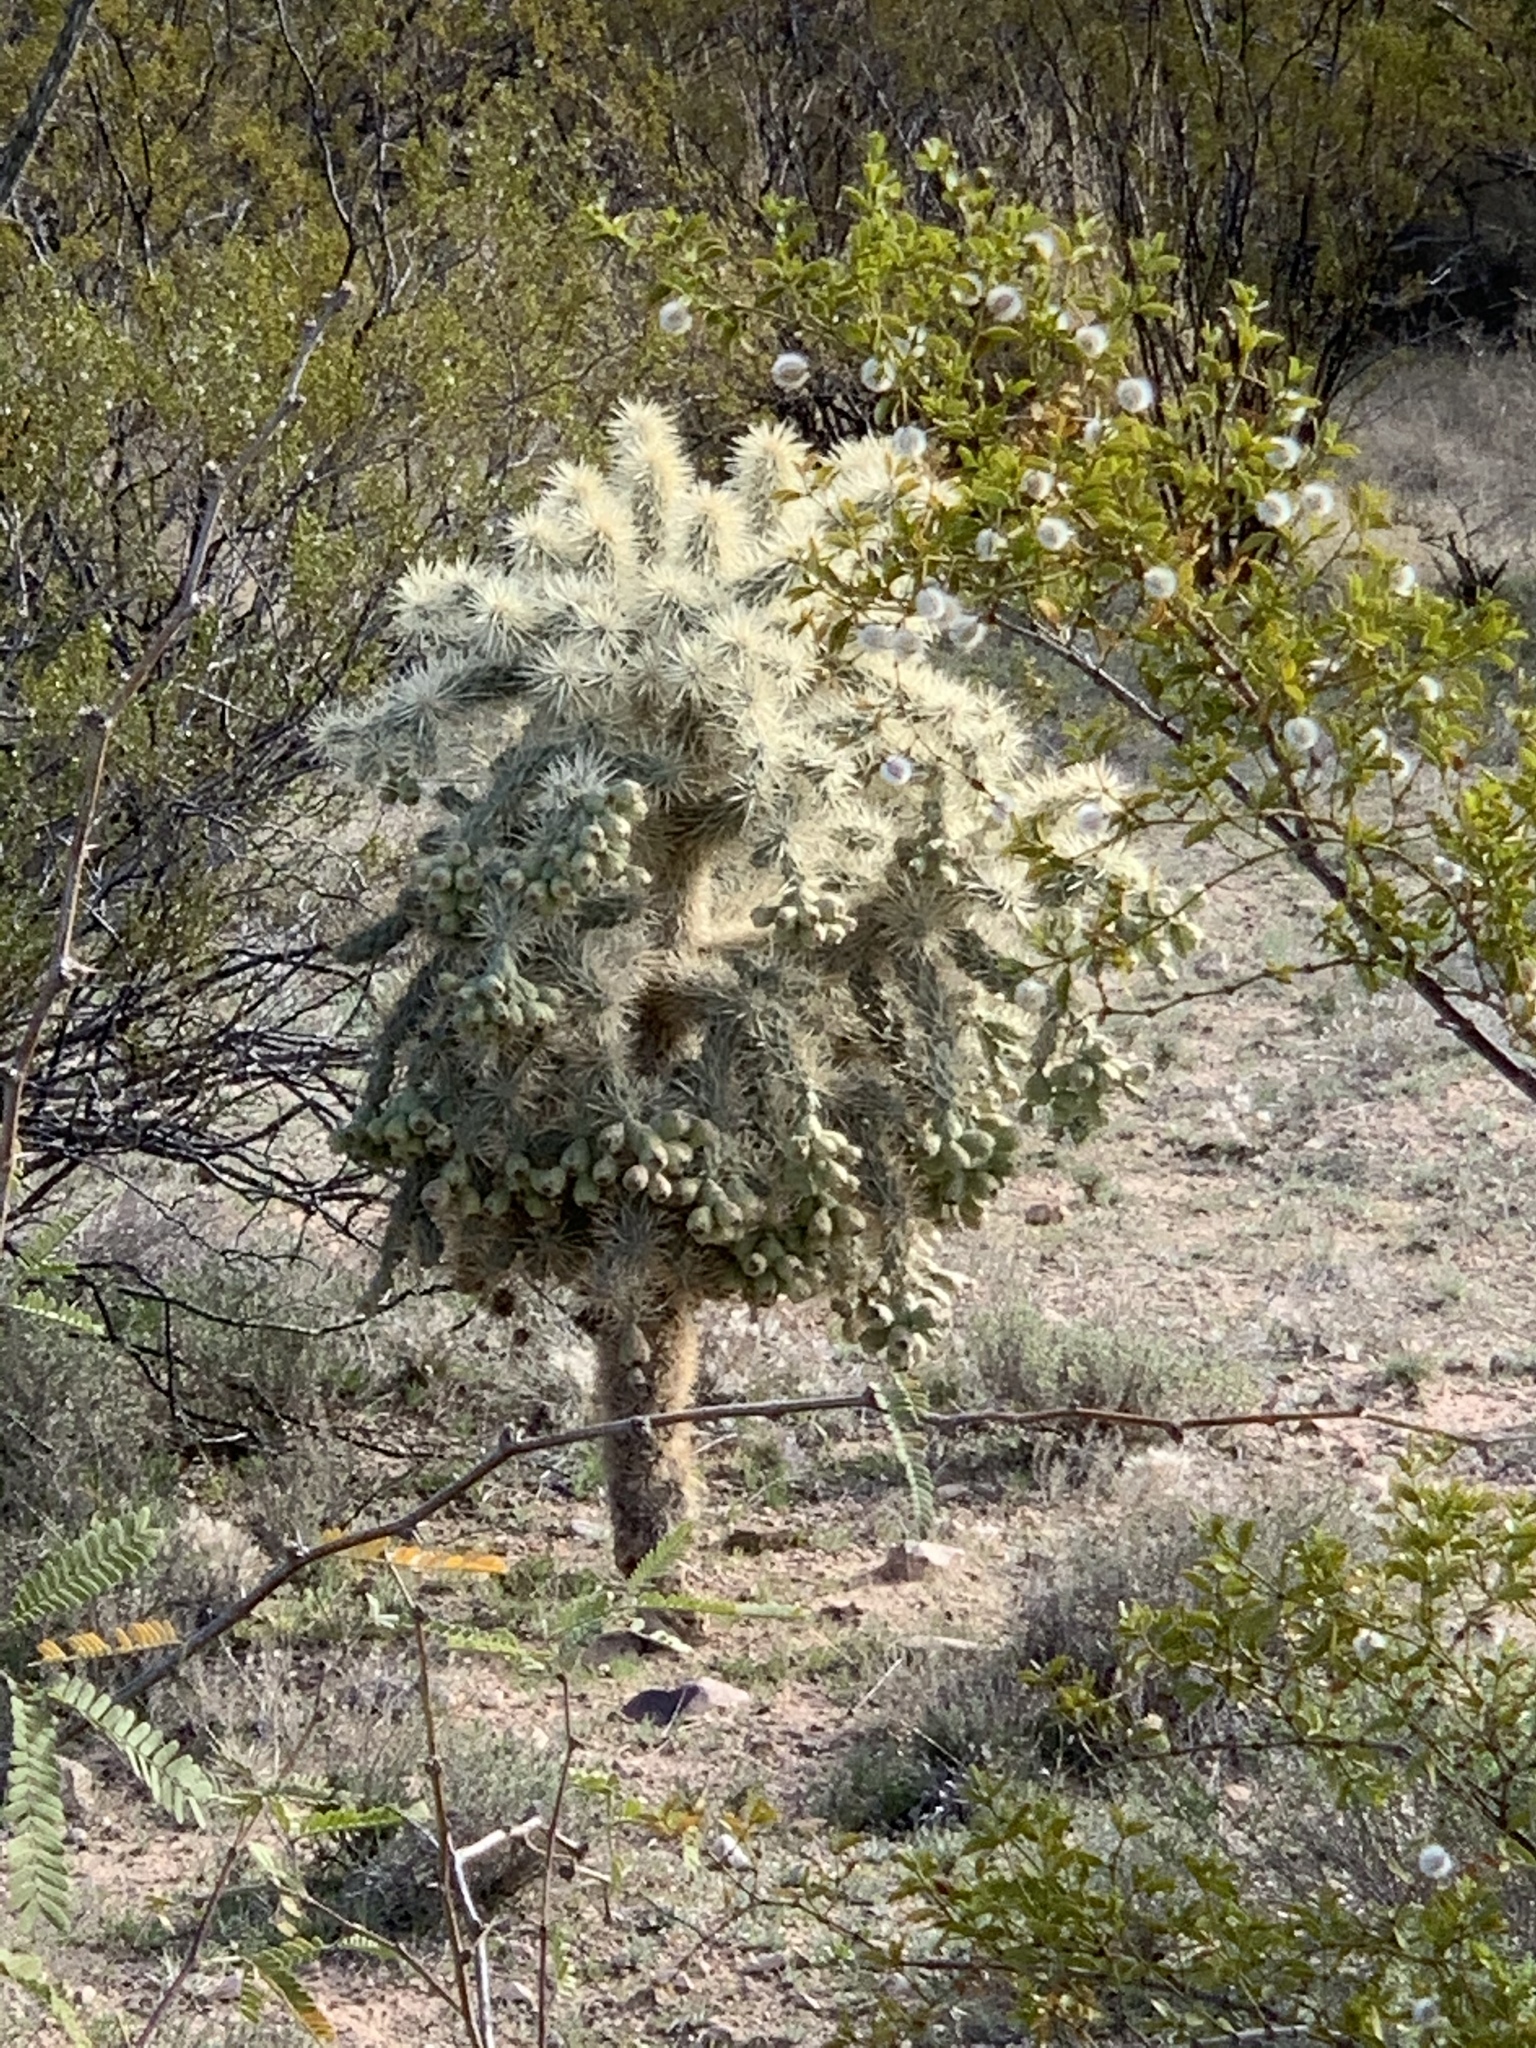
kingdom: Plantae
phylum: Tracheophyta
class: Magnoliopsida
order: Caryophyllales
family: Cactaceae
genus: Cylindropuntia
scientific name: Cylindropuntia fulgida
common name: Jumping cholla
